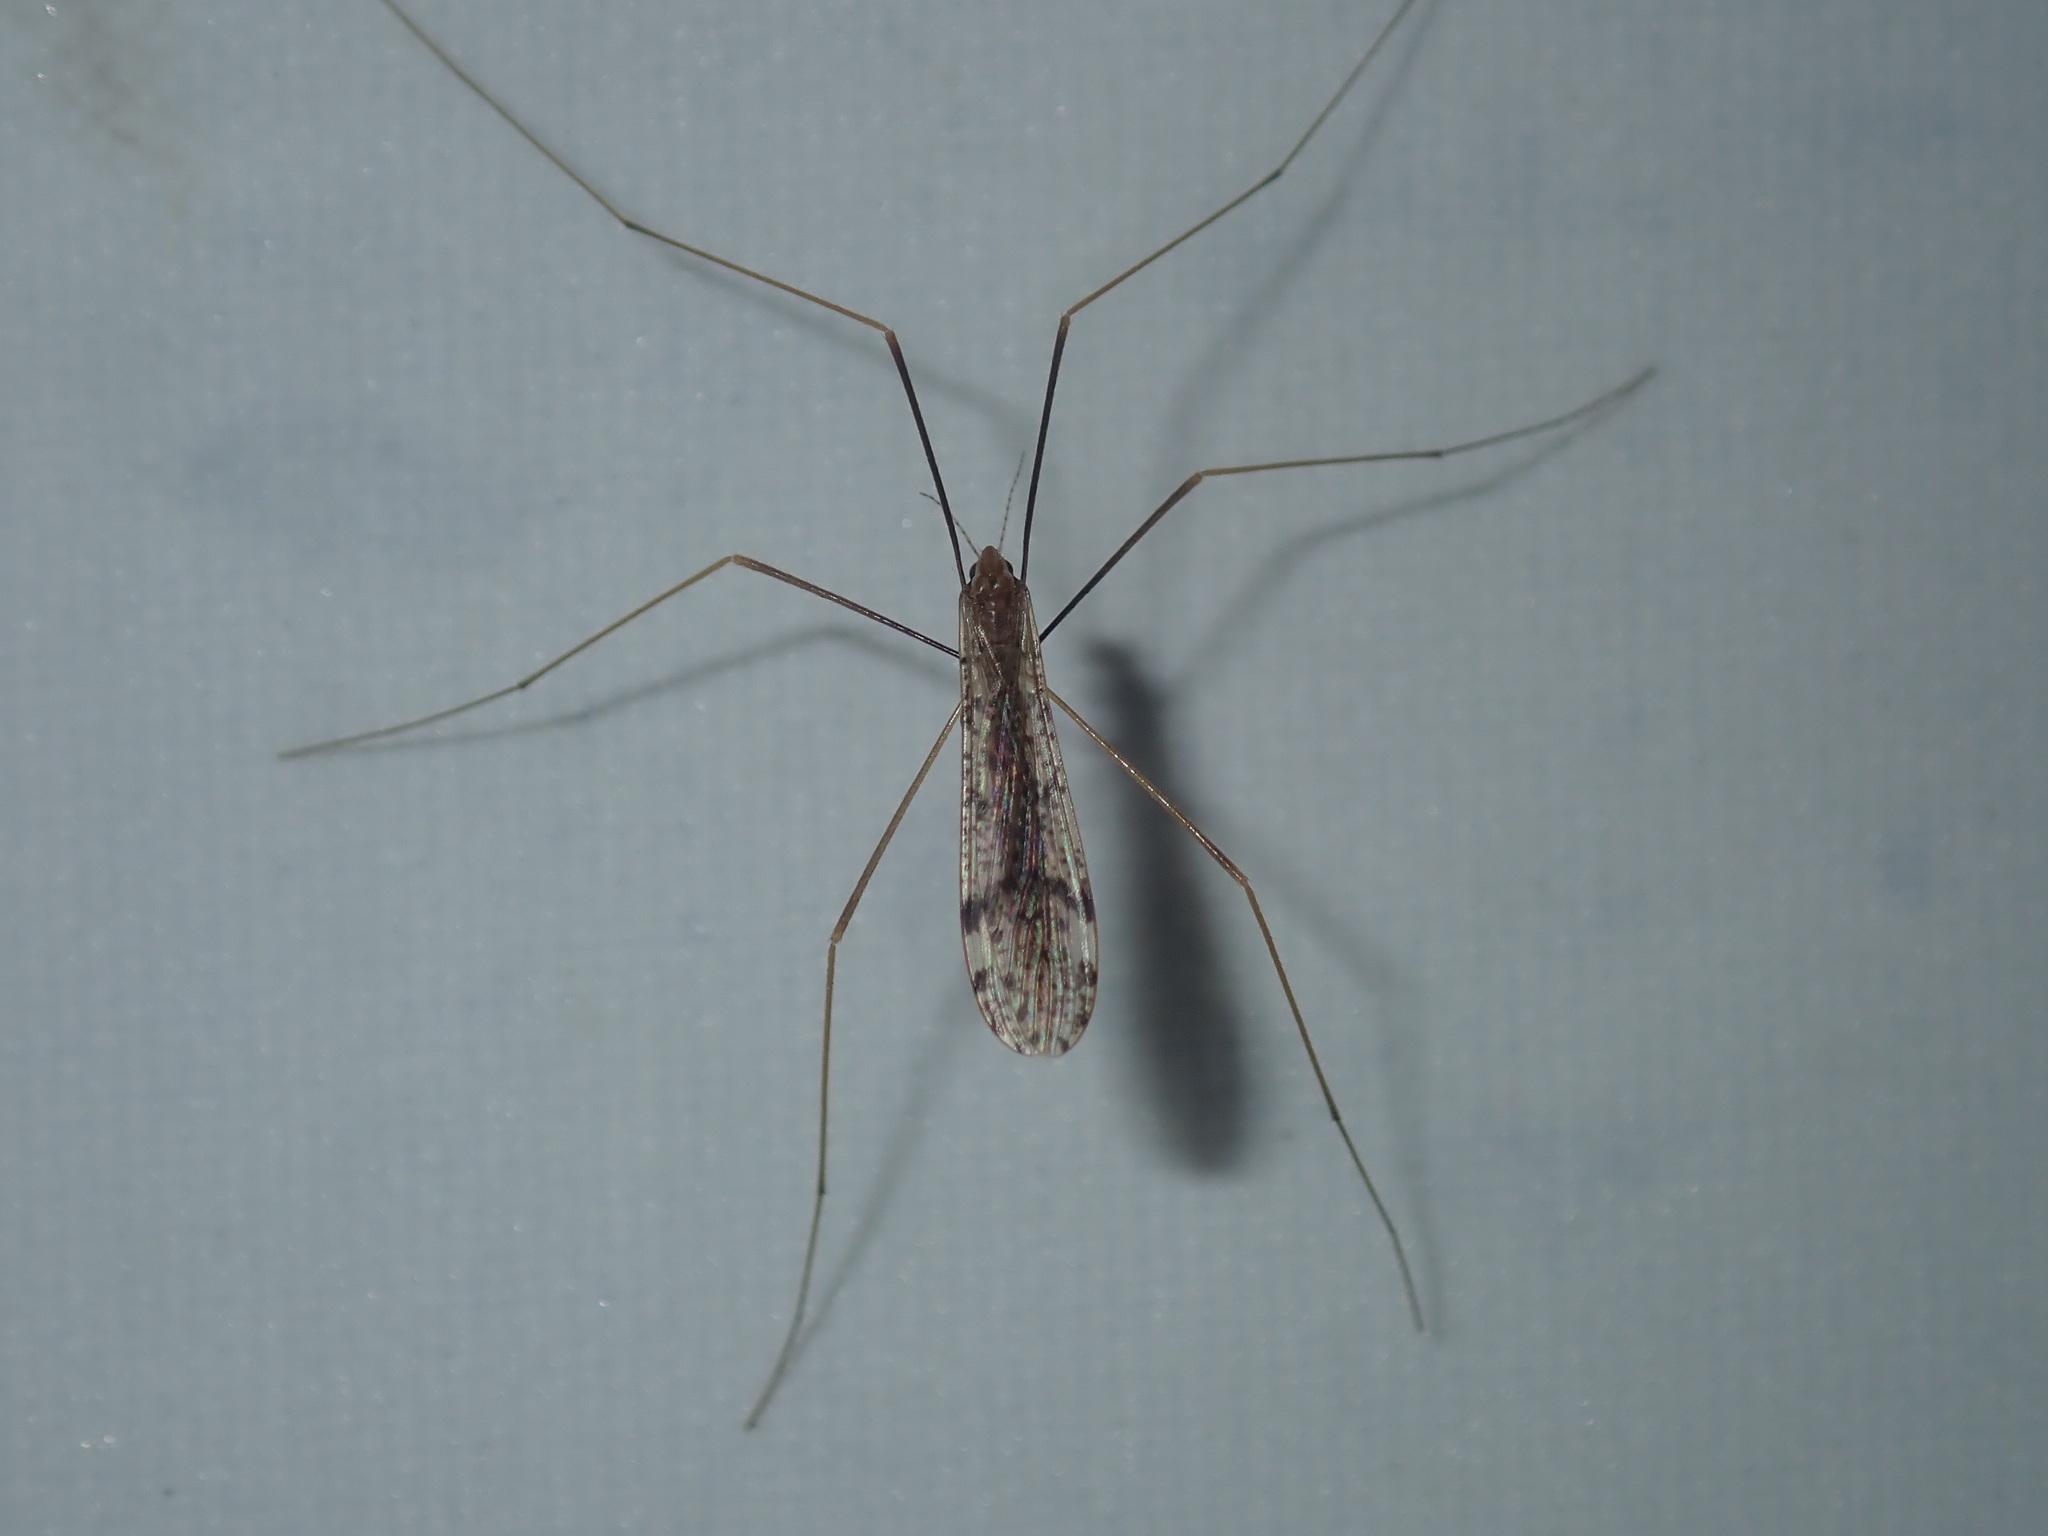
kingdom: Animalia
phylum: Arthropoda
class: Insecta
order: Diptera
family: Limoniidae
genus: Austrolimnophila
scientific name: Austrolimnophila antiqua
